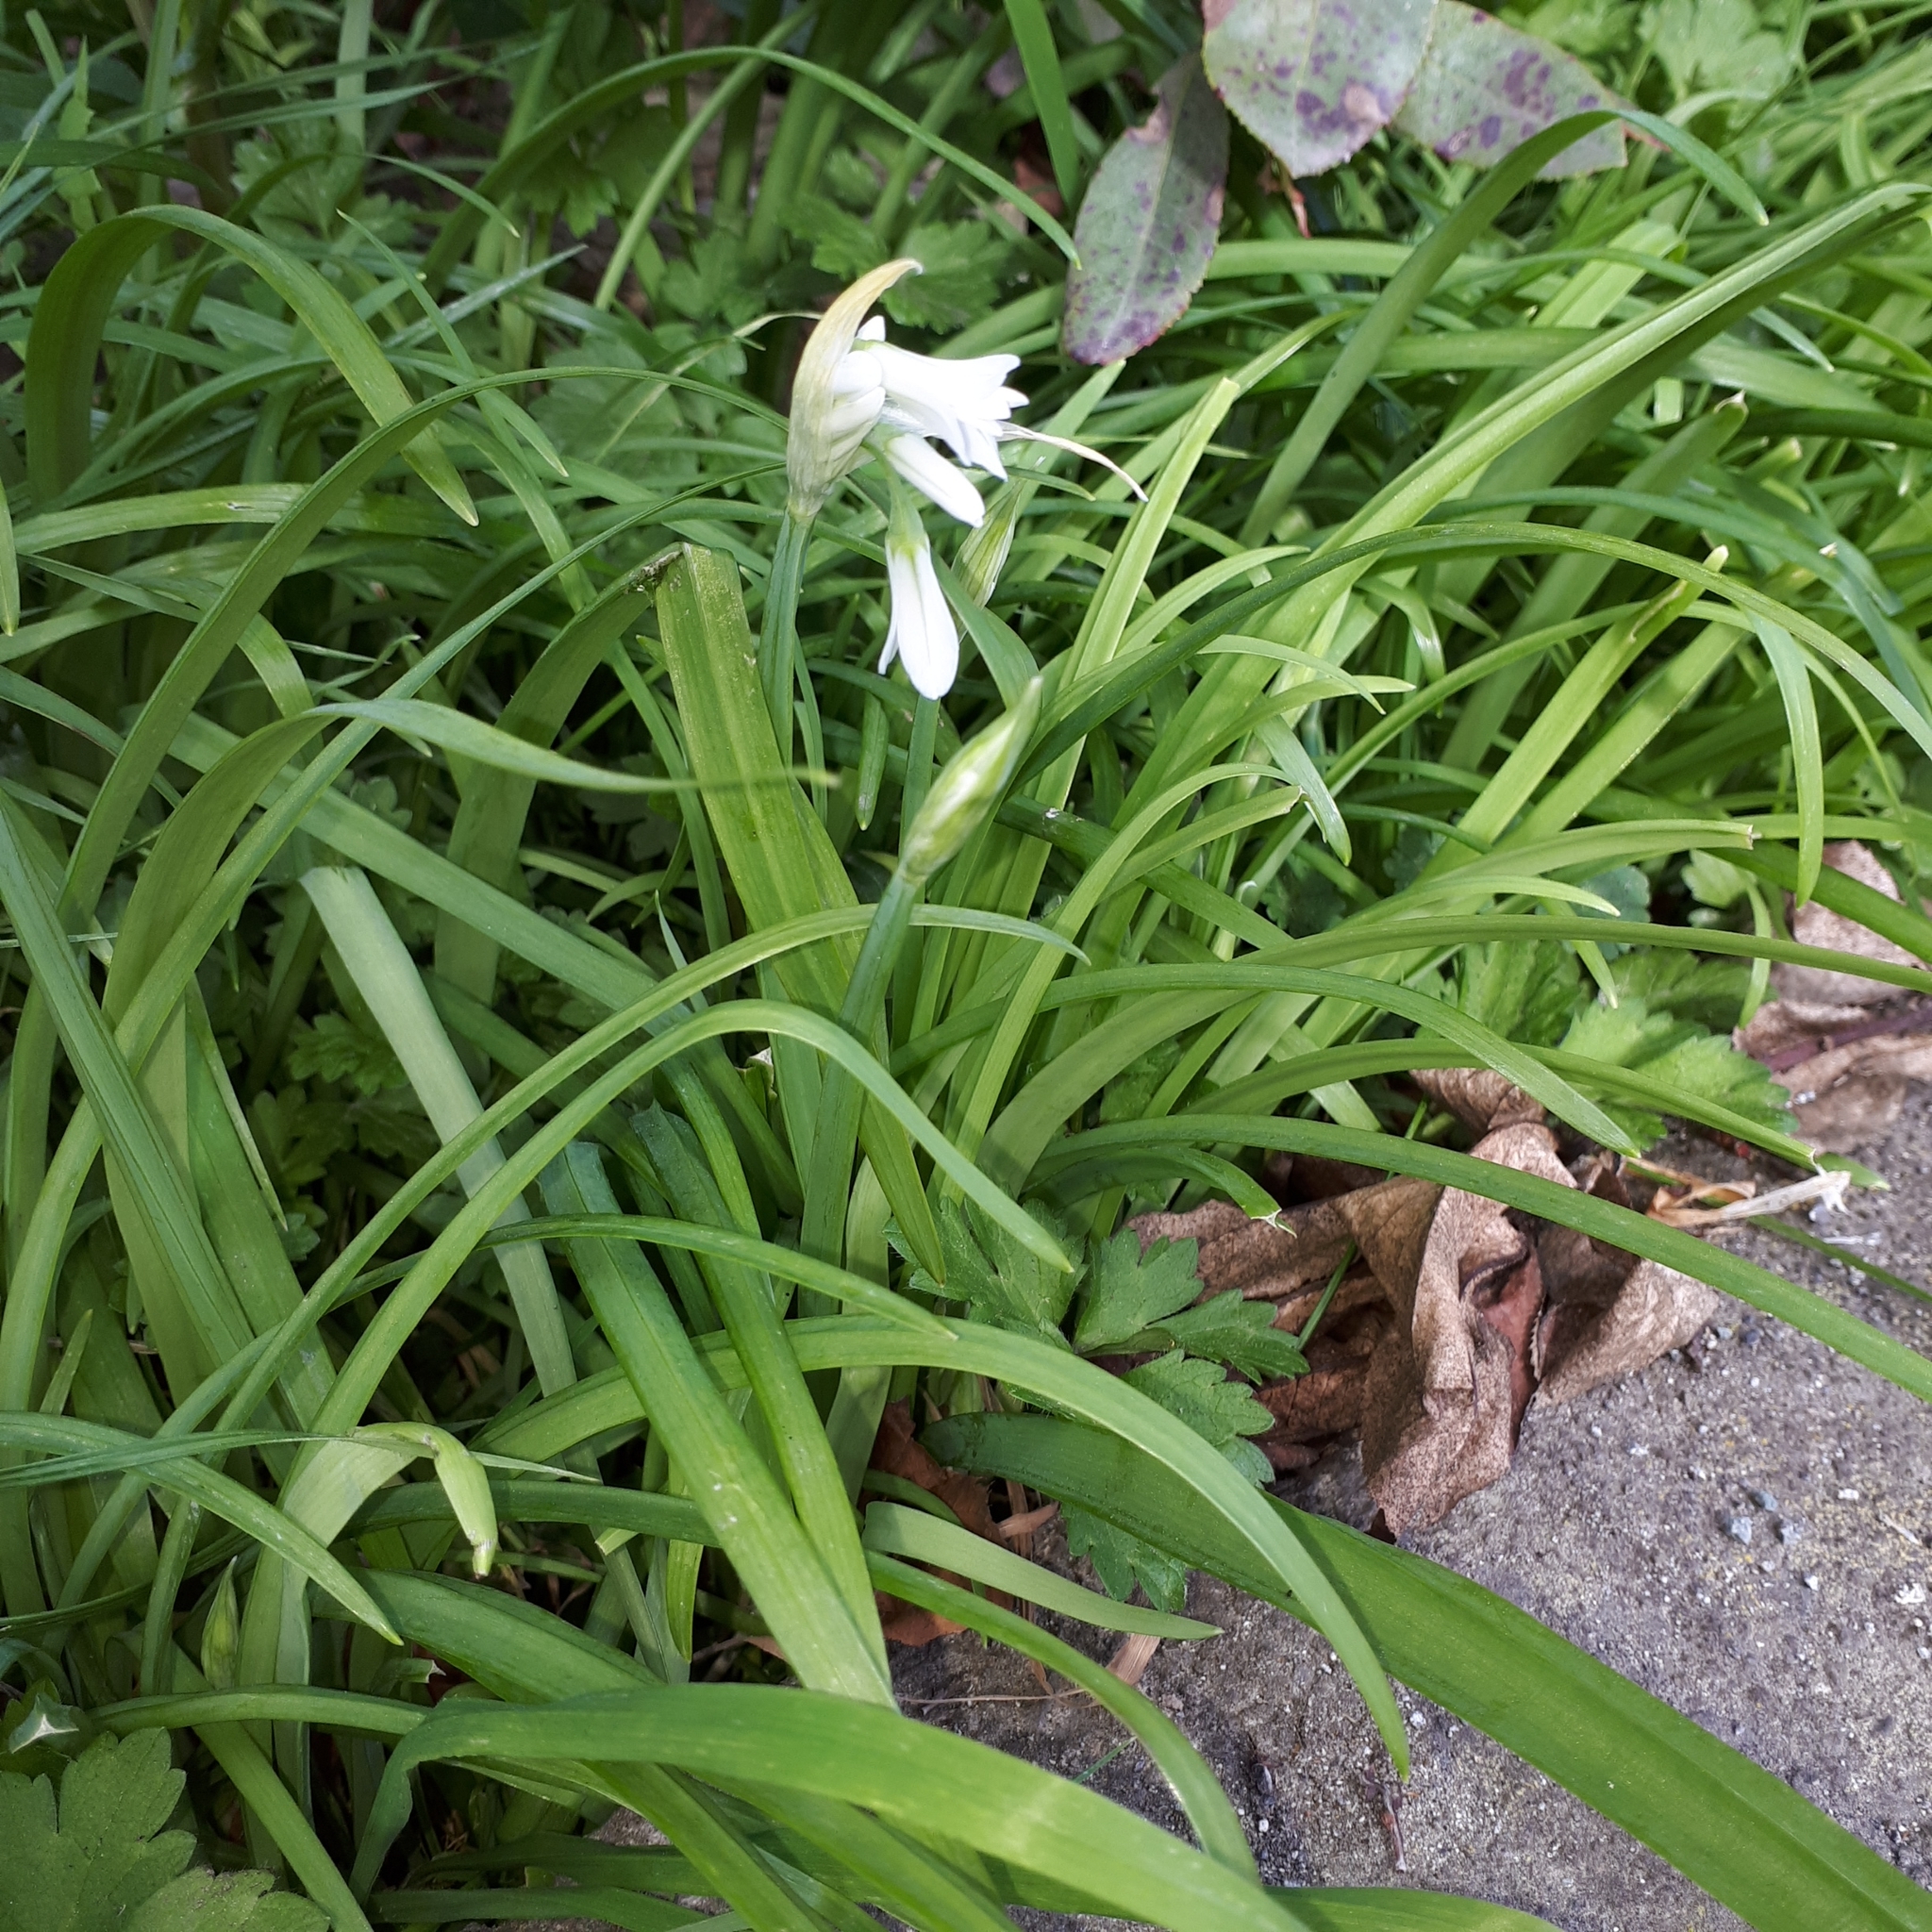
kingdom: Plantae
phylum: Tracheophyta
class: Liliopsida
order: Asparagales
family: Amaryllidaceae
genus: Allium
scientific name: Allium triquetrum
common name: Three-cornered garlic
